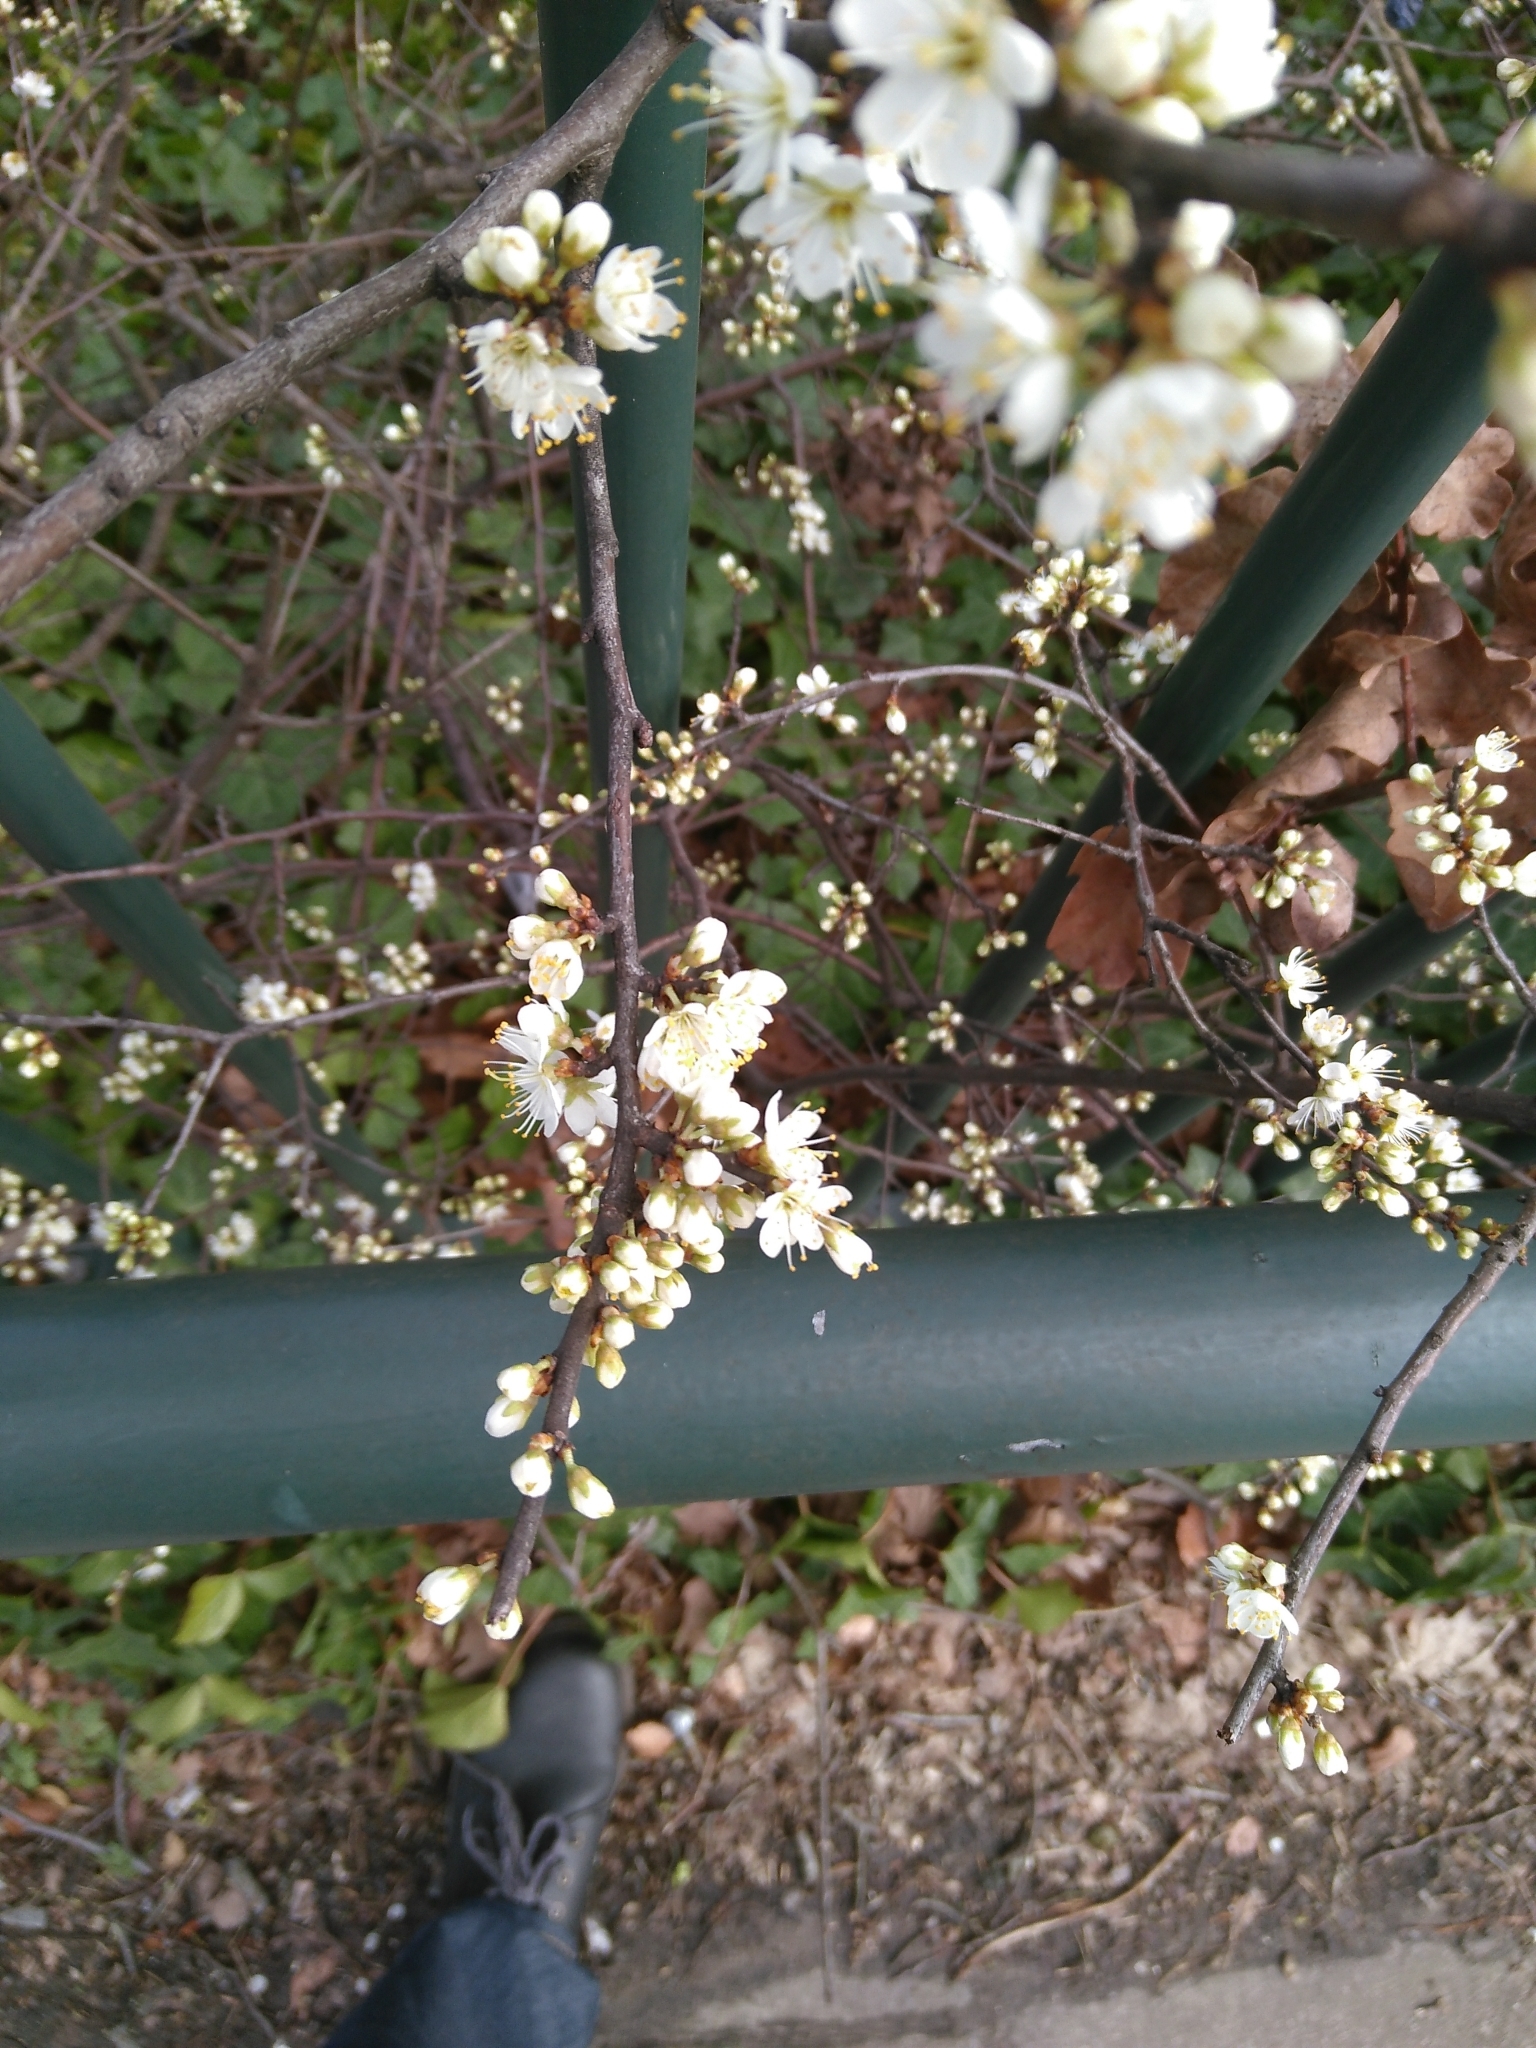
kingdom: Plantae
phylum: Tracheophyta
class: Magnoliopsida
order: Rosales
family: Rosaceae
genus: Prunus
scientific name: Prunus spinosa
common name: Blackthorn
